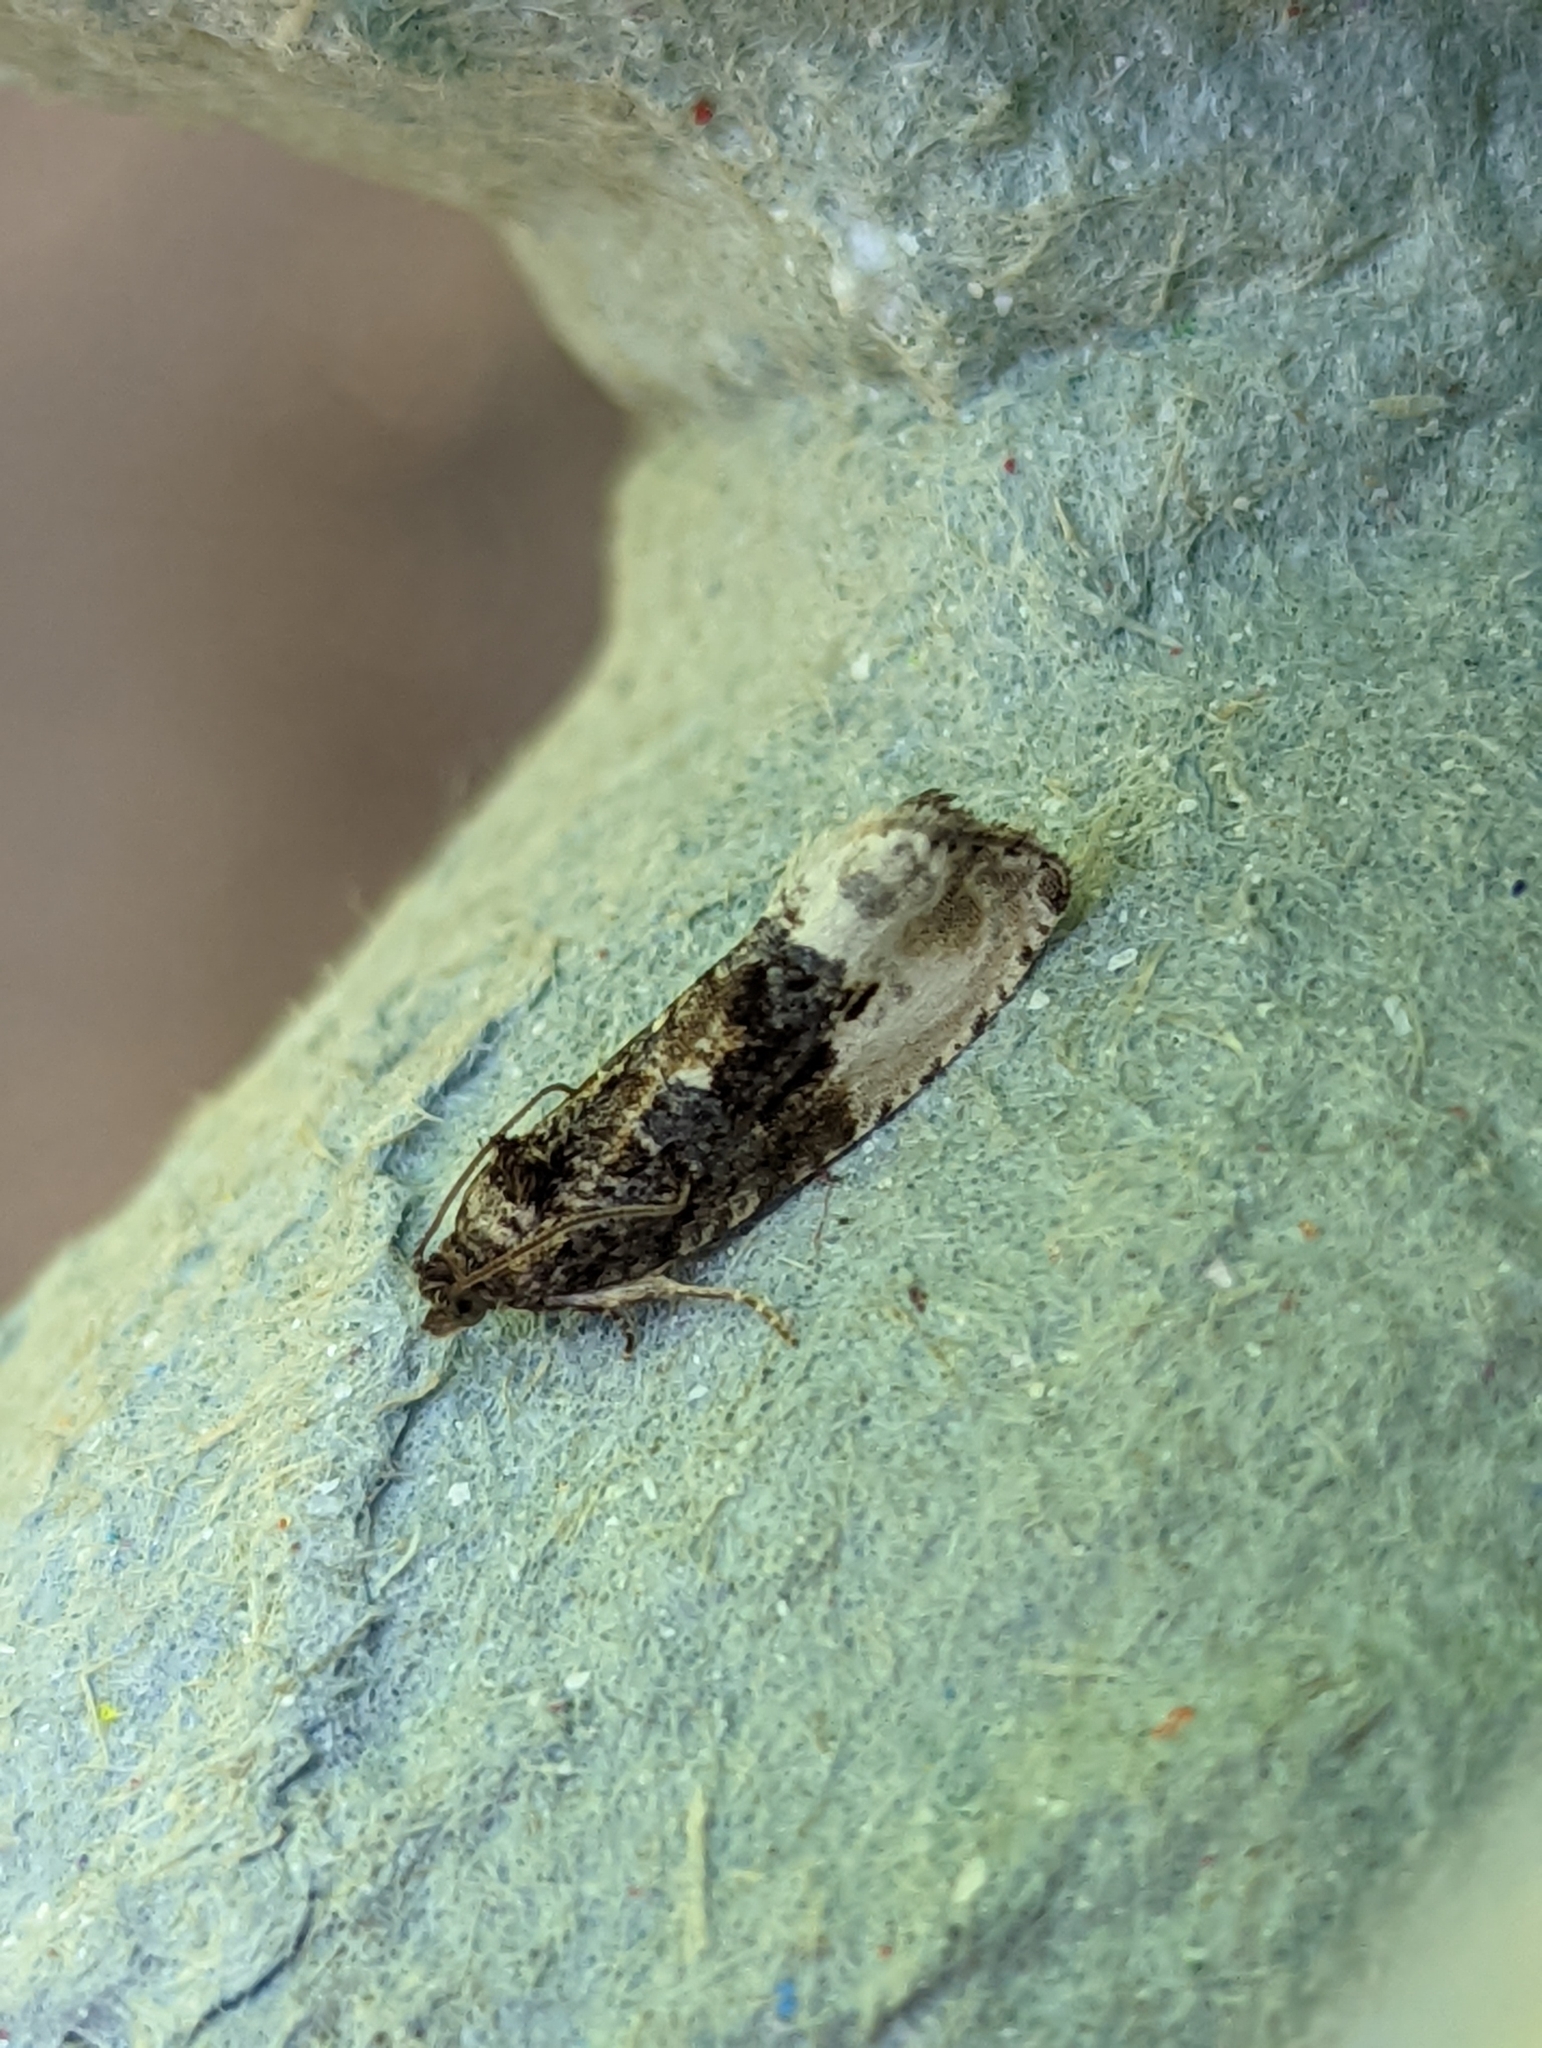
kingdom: Animalia
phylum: Arthropoda
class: Insecta
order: Lepidoptera
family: Tortricidae
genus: Hedya
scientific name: Hedya nubiferana
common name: Marbled orchard tortrix
